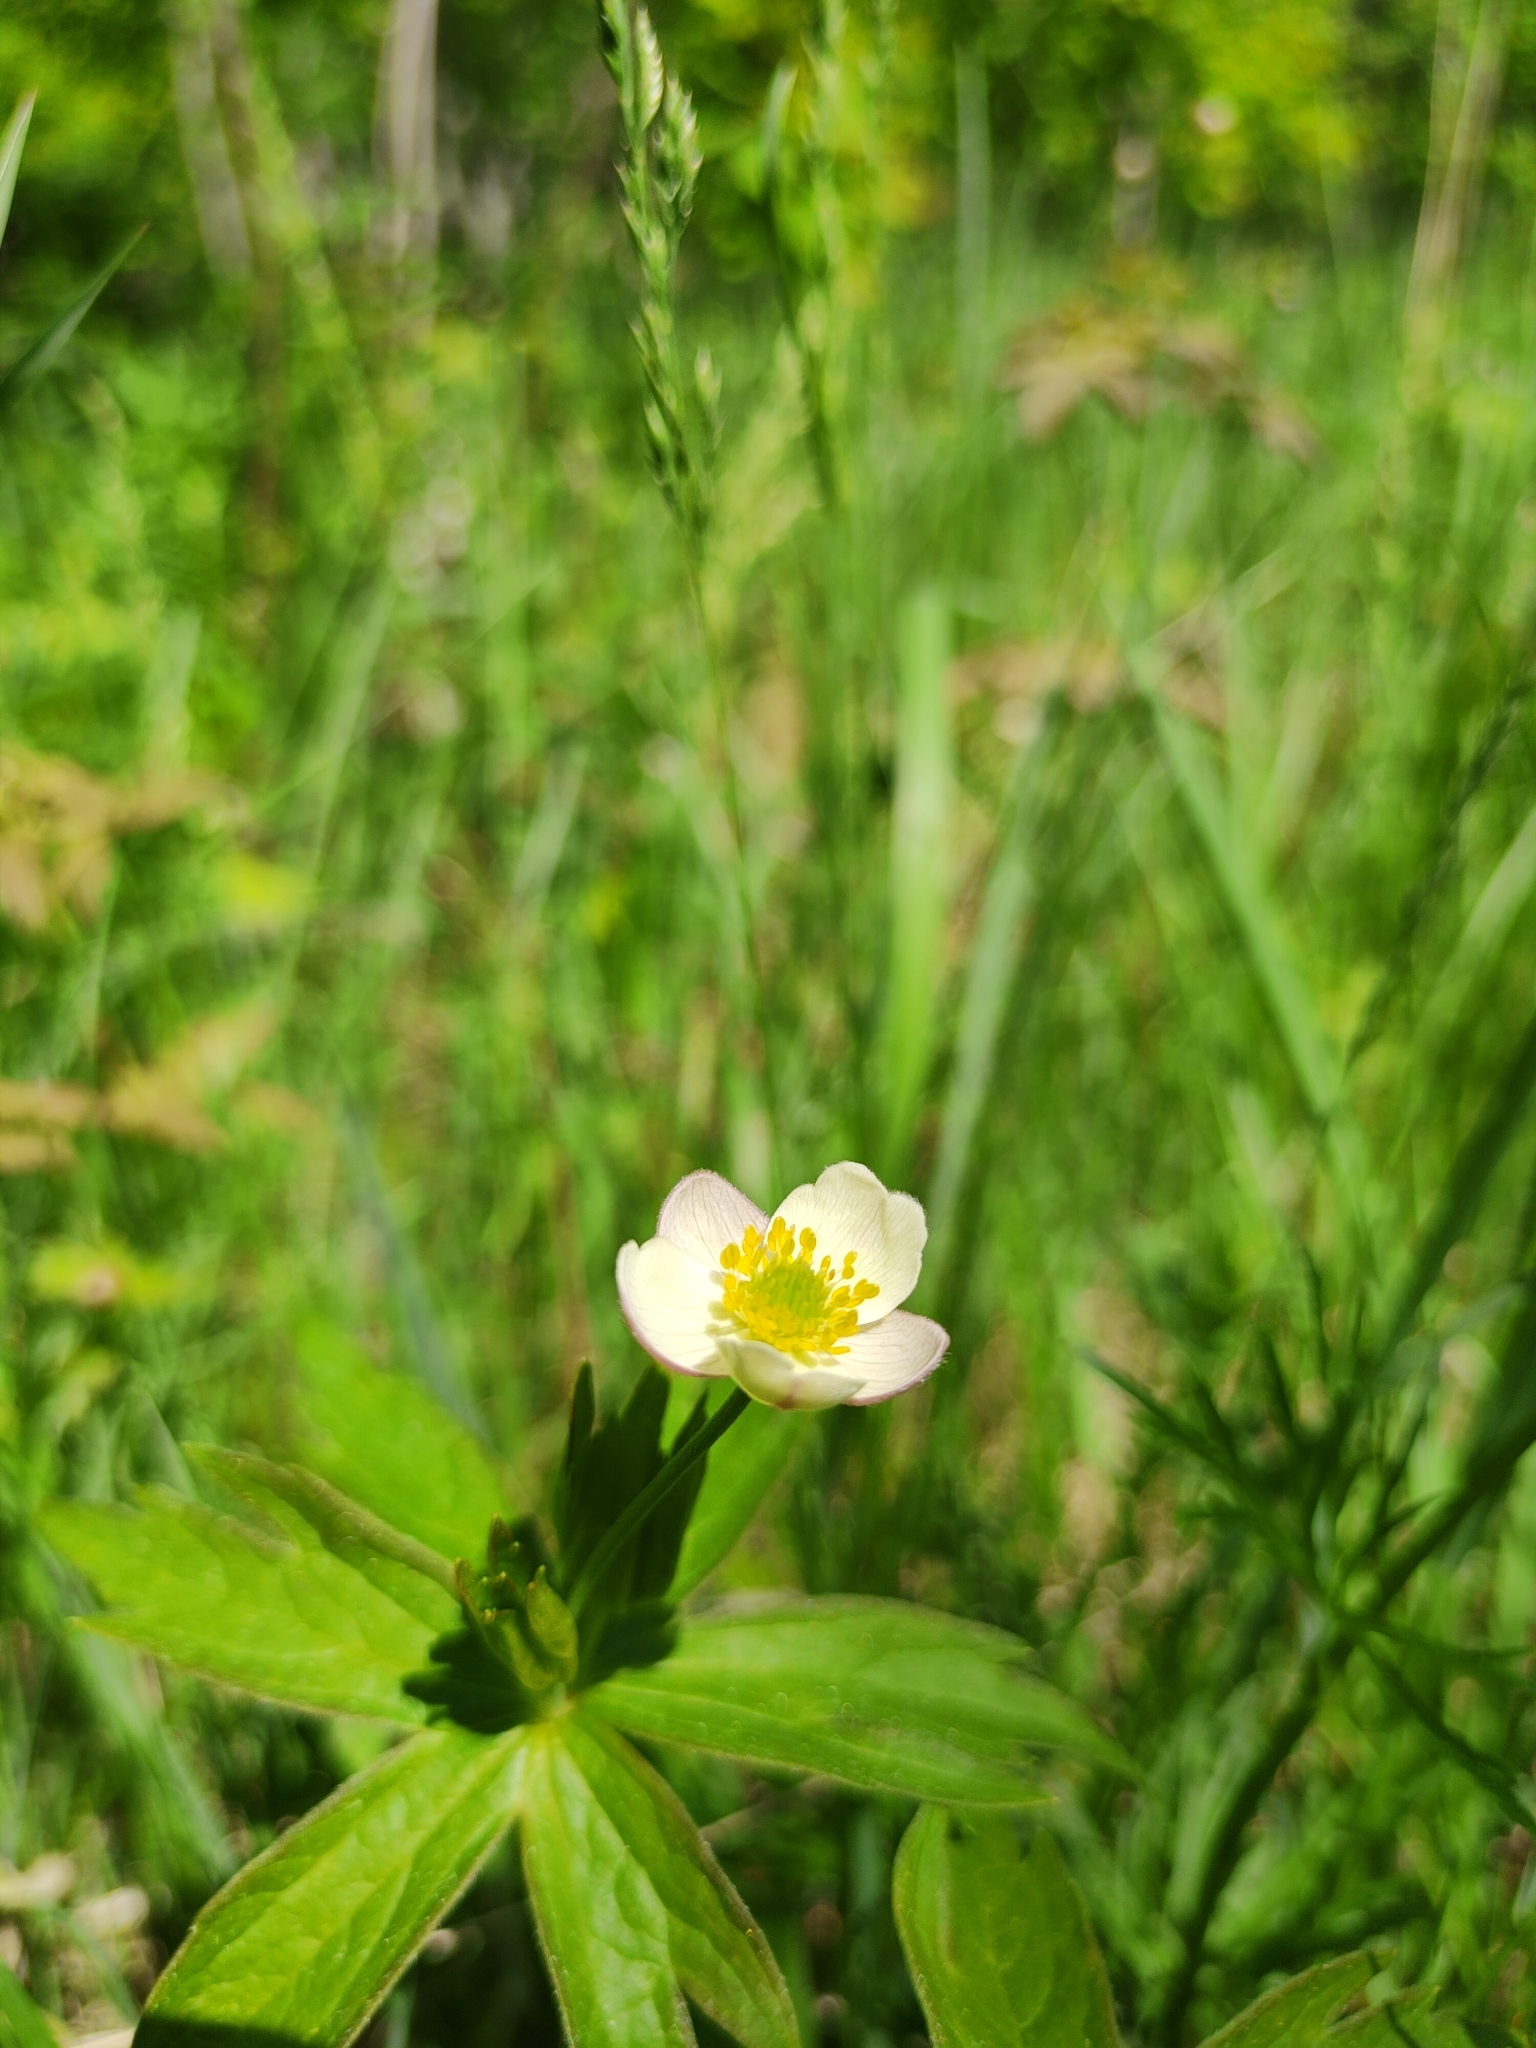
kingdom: Plantae
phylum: Tracheophyta
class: Magnoliopsida
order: Ranunculales
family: Ranunculaceae
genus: Anemonastrum
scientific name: Anemonastrum dichotomum
